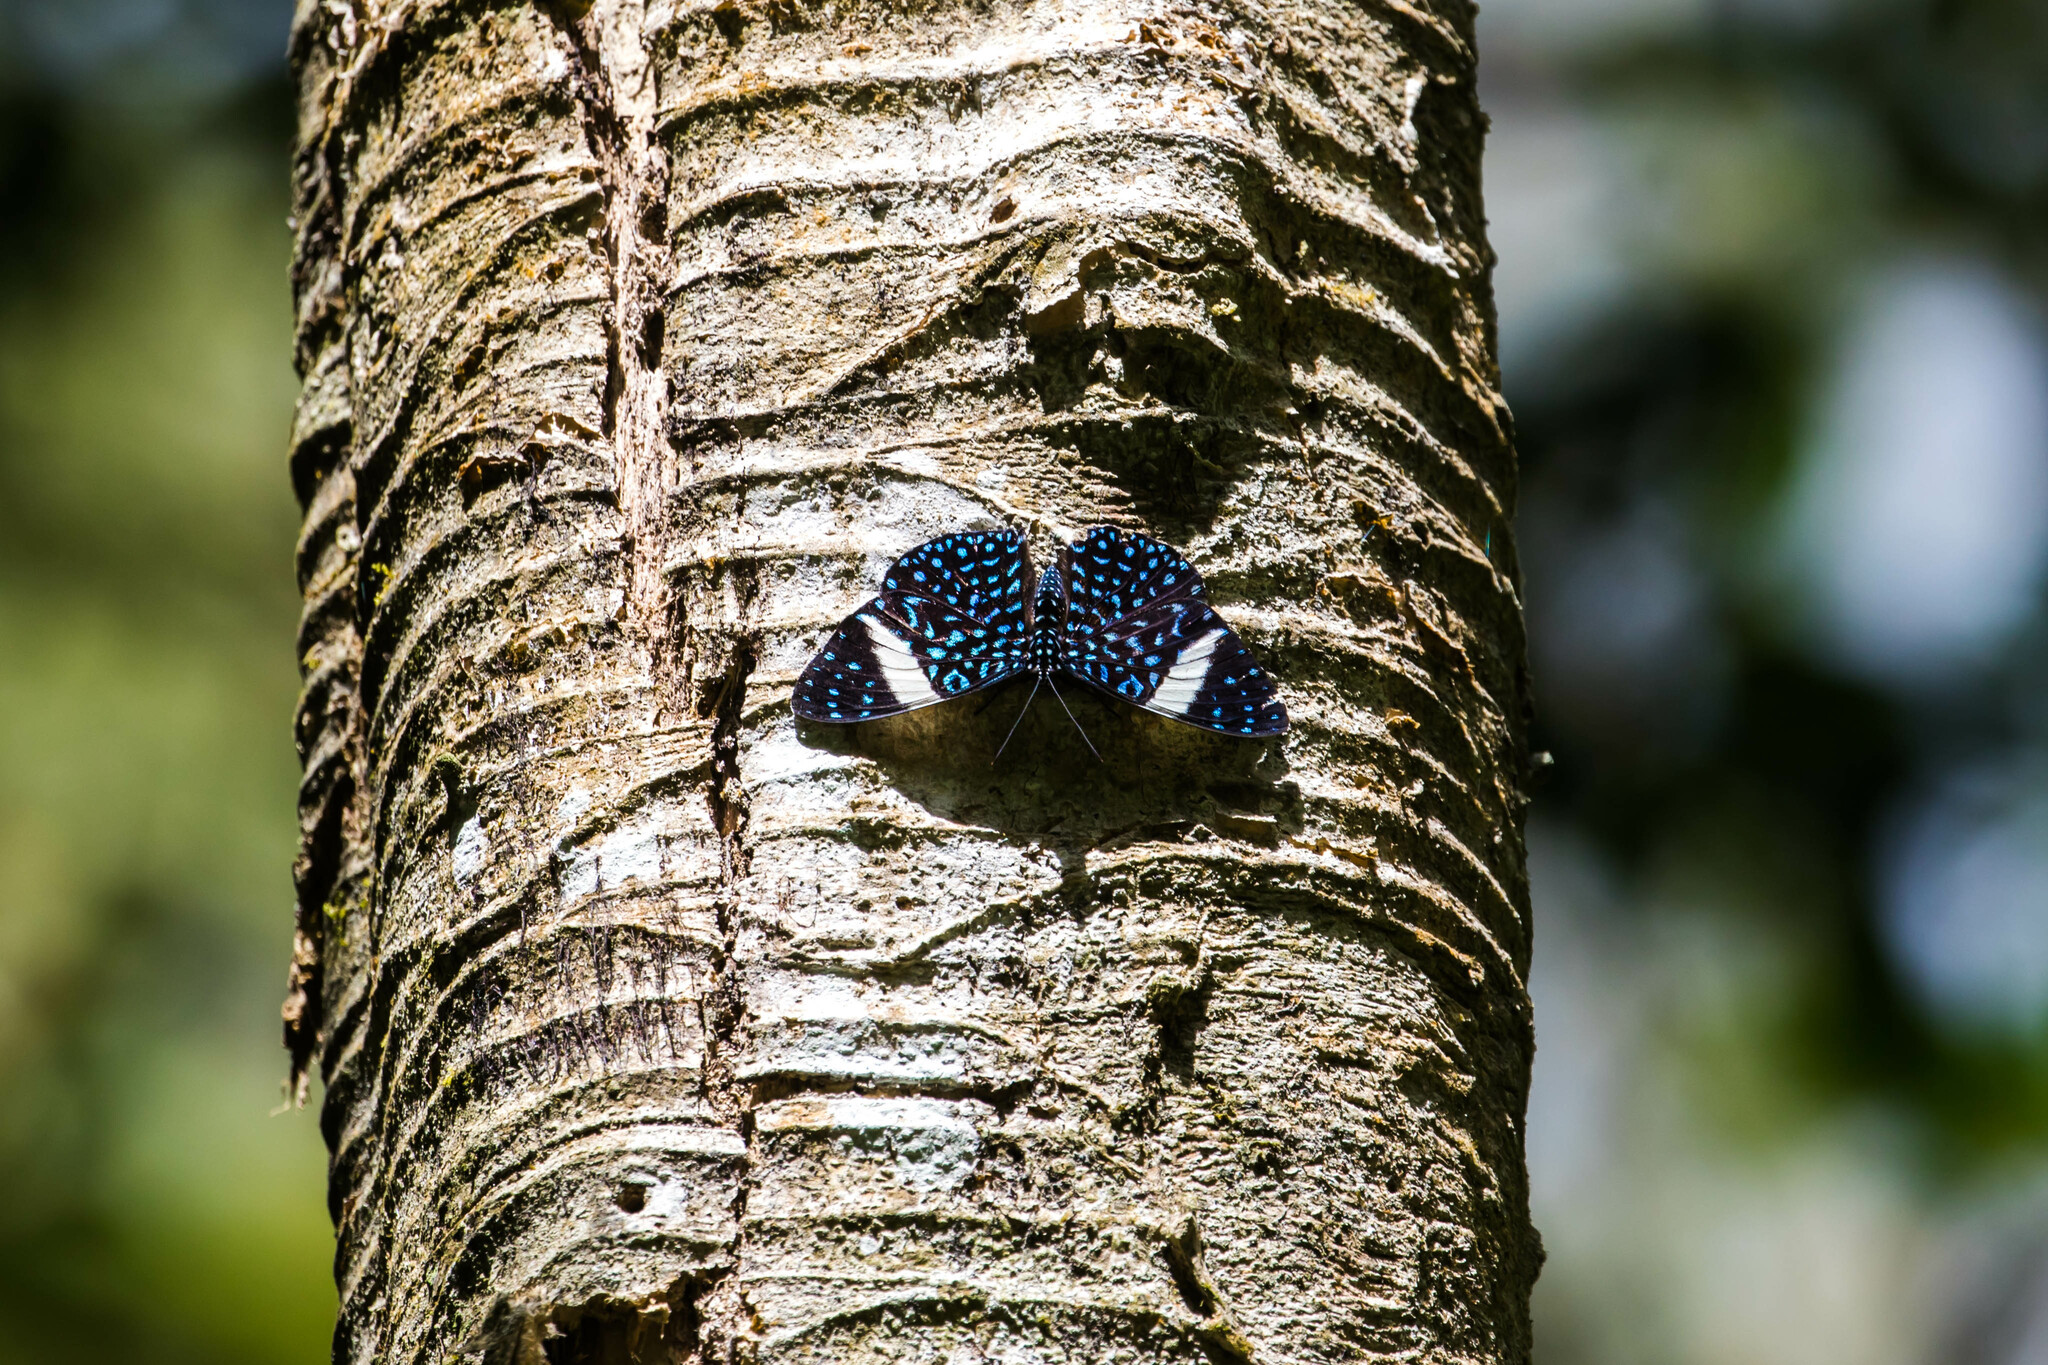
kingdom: Animalia
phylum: Arthropoda
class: Insecta
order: Lepidoptera
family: Nymphalidae
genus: Hamadryas
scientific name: Hamadryas laodamia
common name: Starry night cracker
